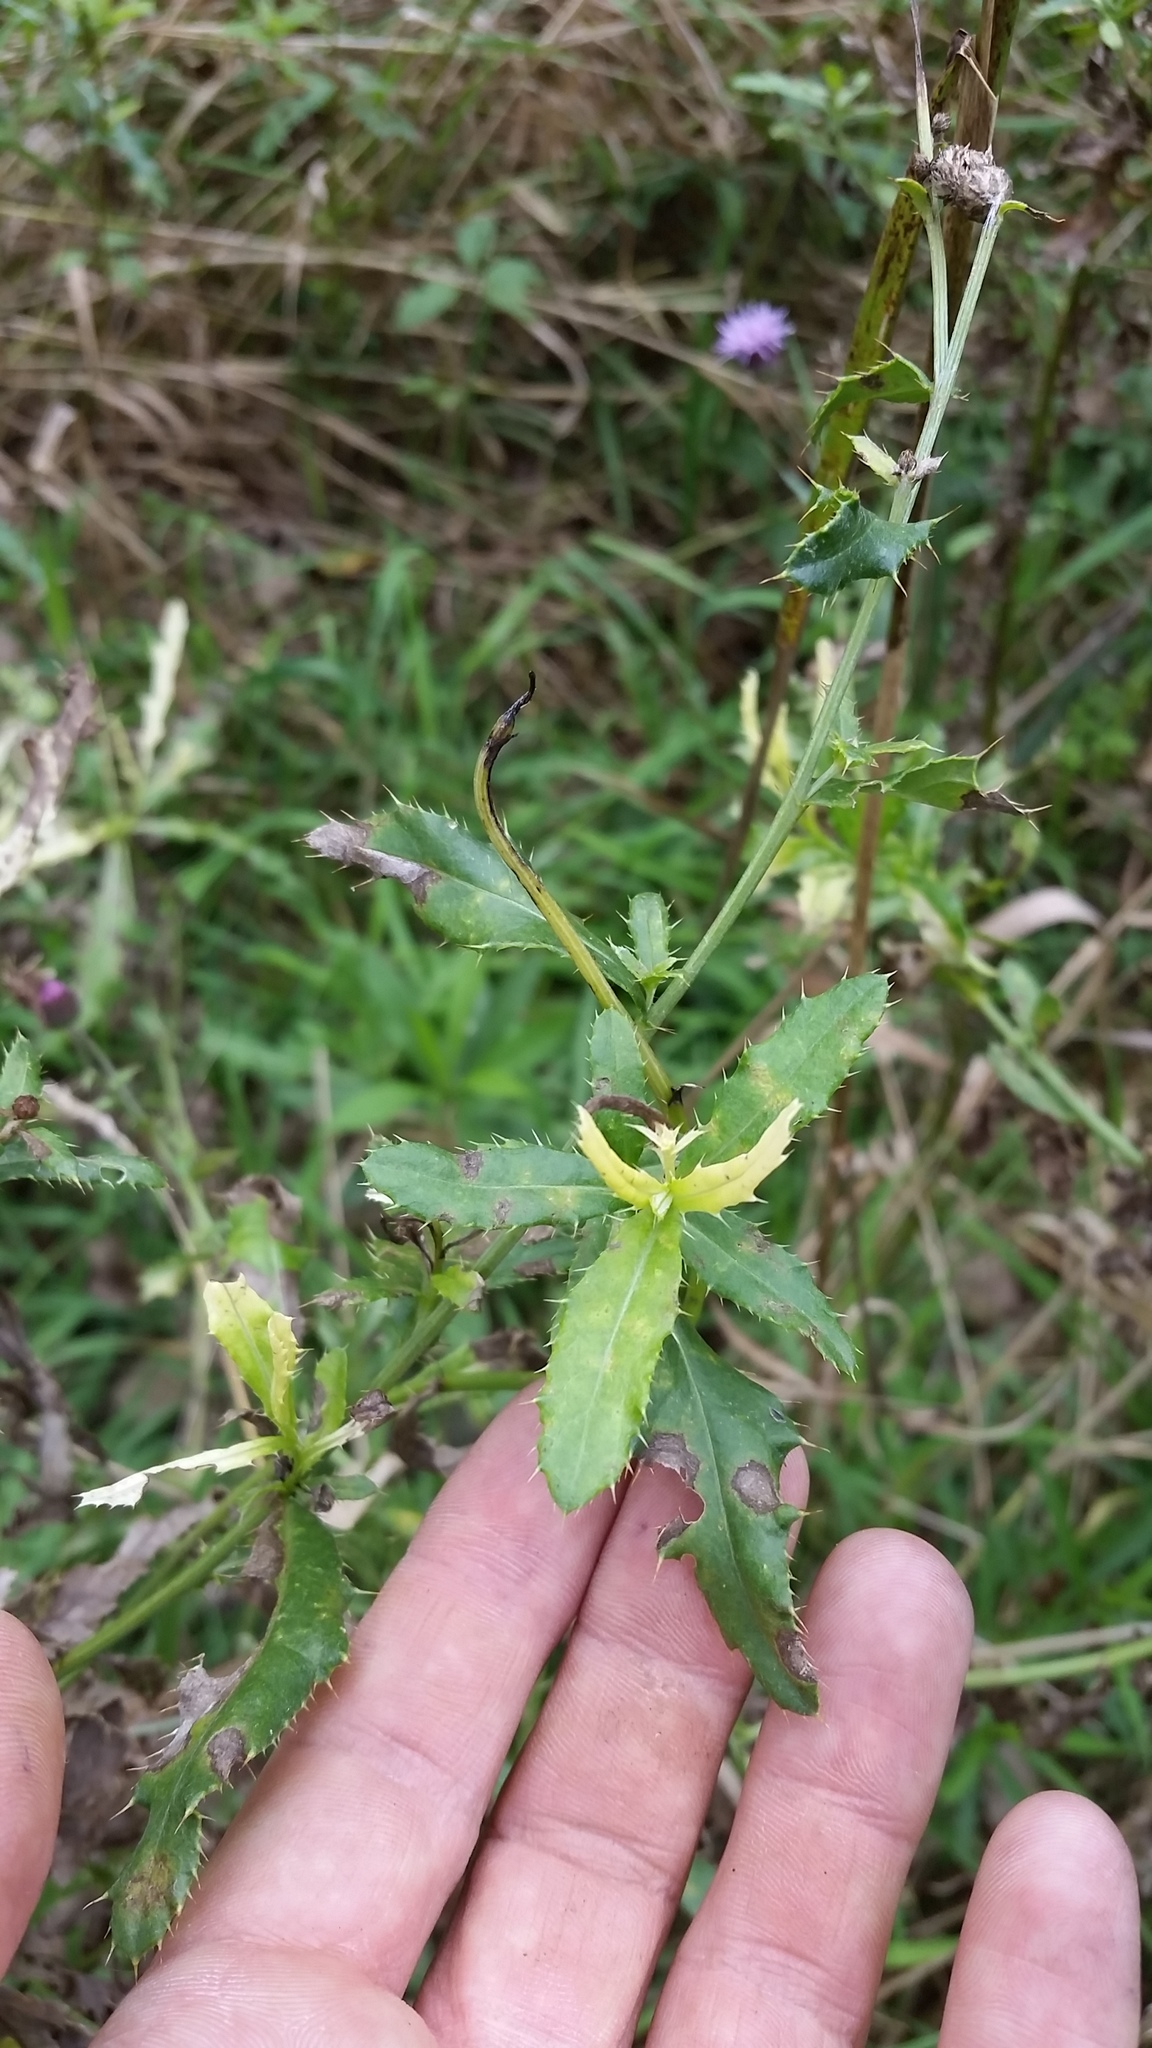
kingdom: Plantae
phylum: Tracheophyta
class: Magnoliopsida
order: Asterales
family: Asteraceae
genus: Cirsium
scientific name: Cirsium arvense
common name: Creeping thistle
